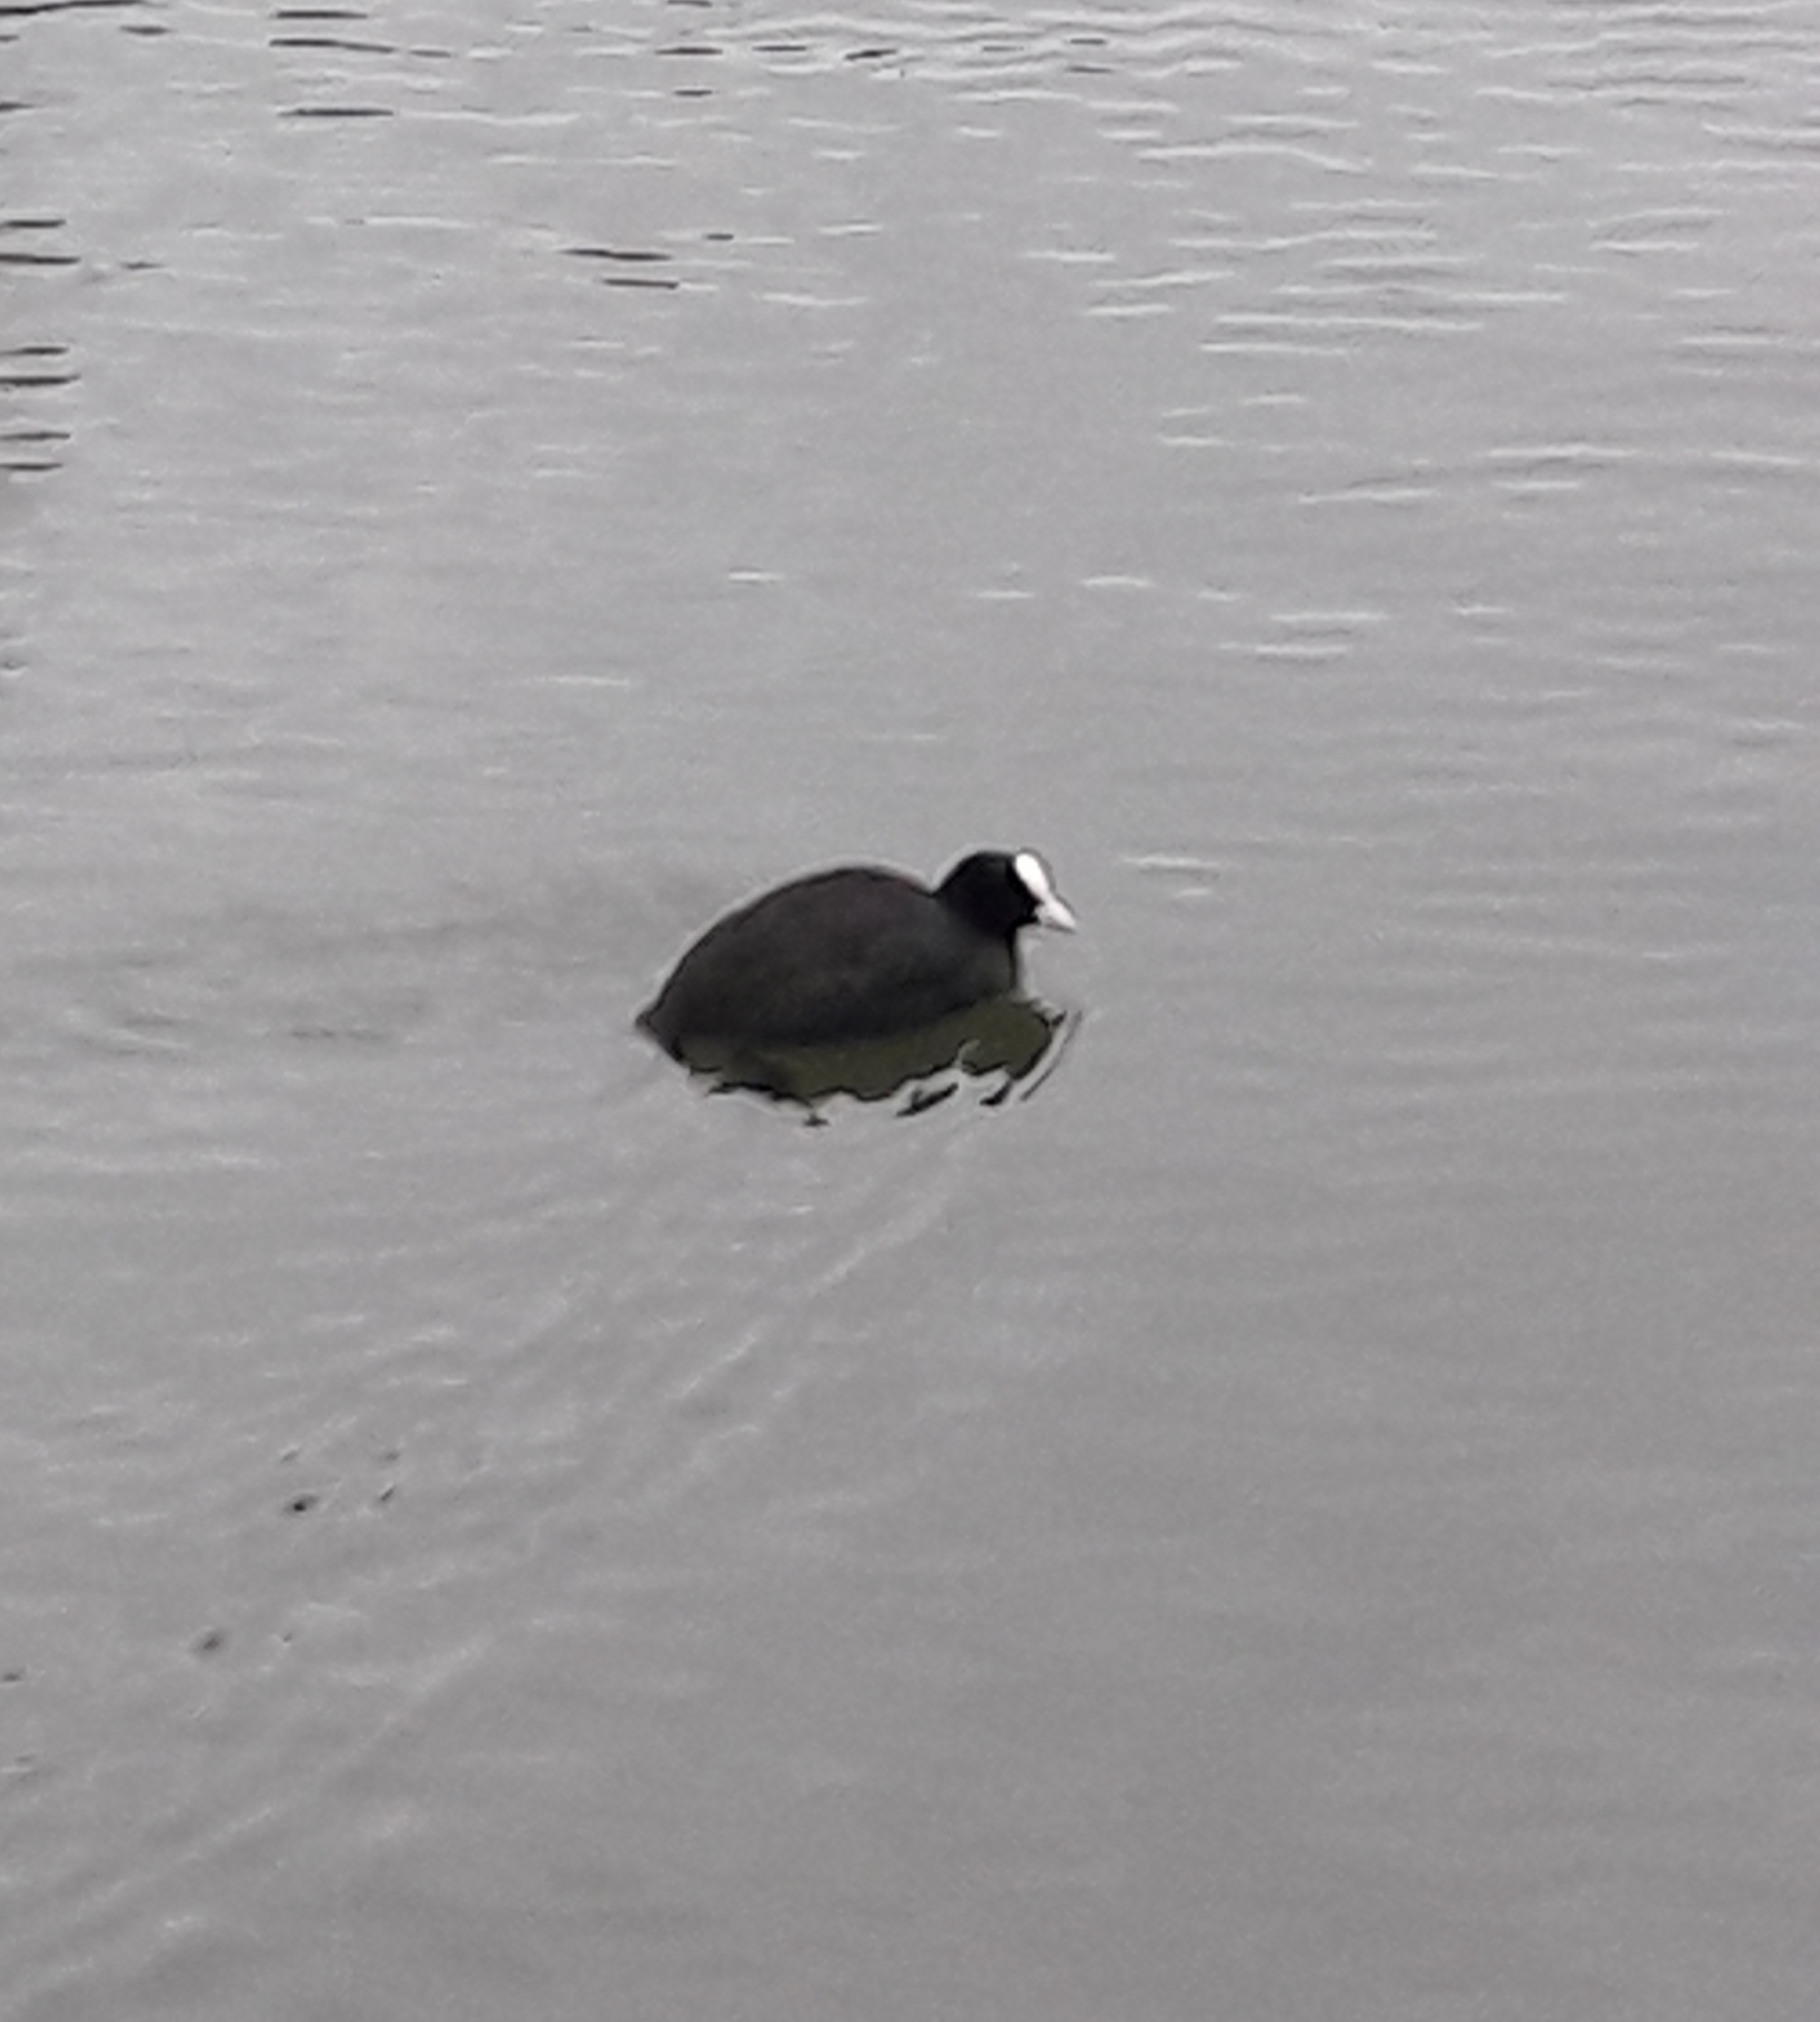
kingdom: Animalia
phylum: Chordata
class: Aves
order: Gruiformes
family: Rallidae
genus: Fulica
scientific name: Fulica atra
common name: Eurasian coot
